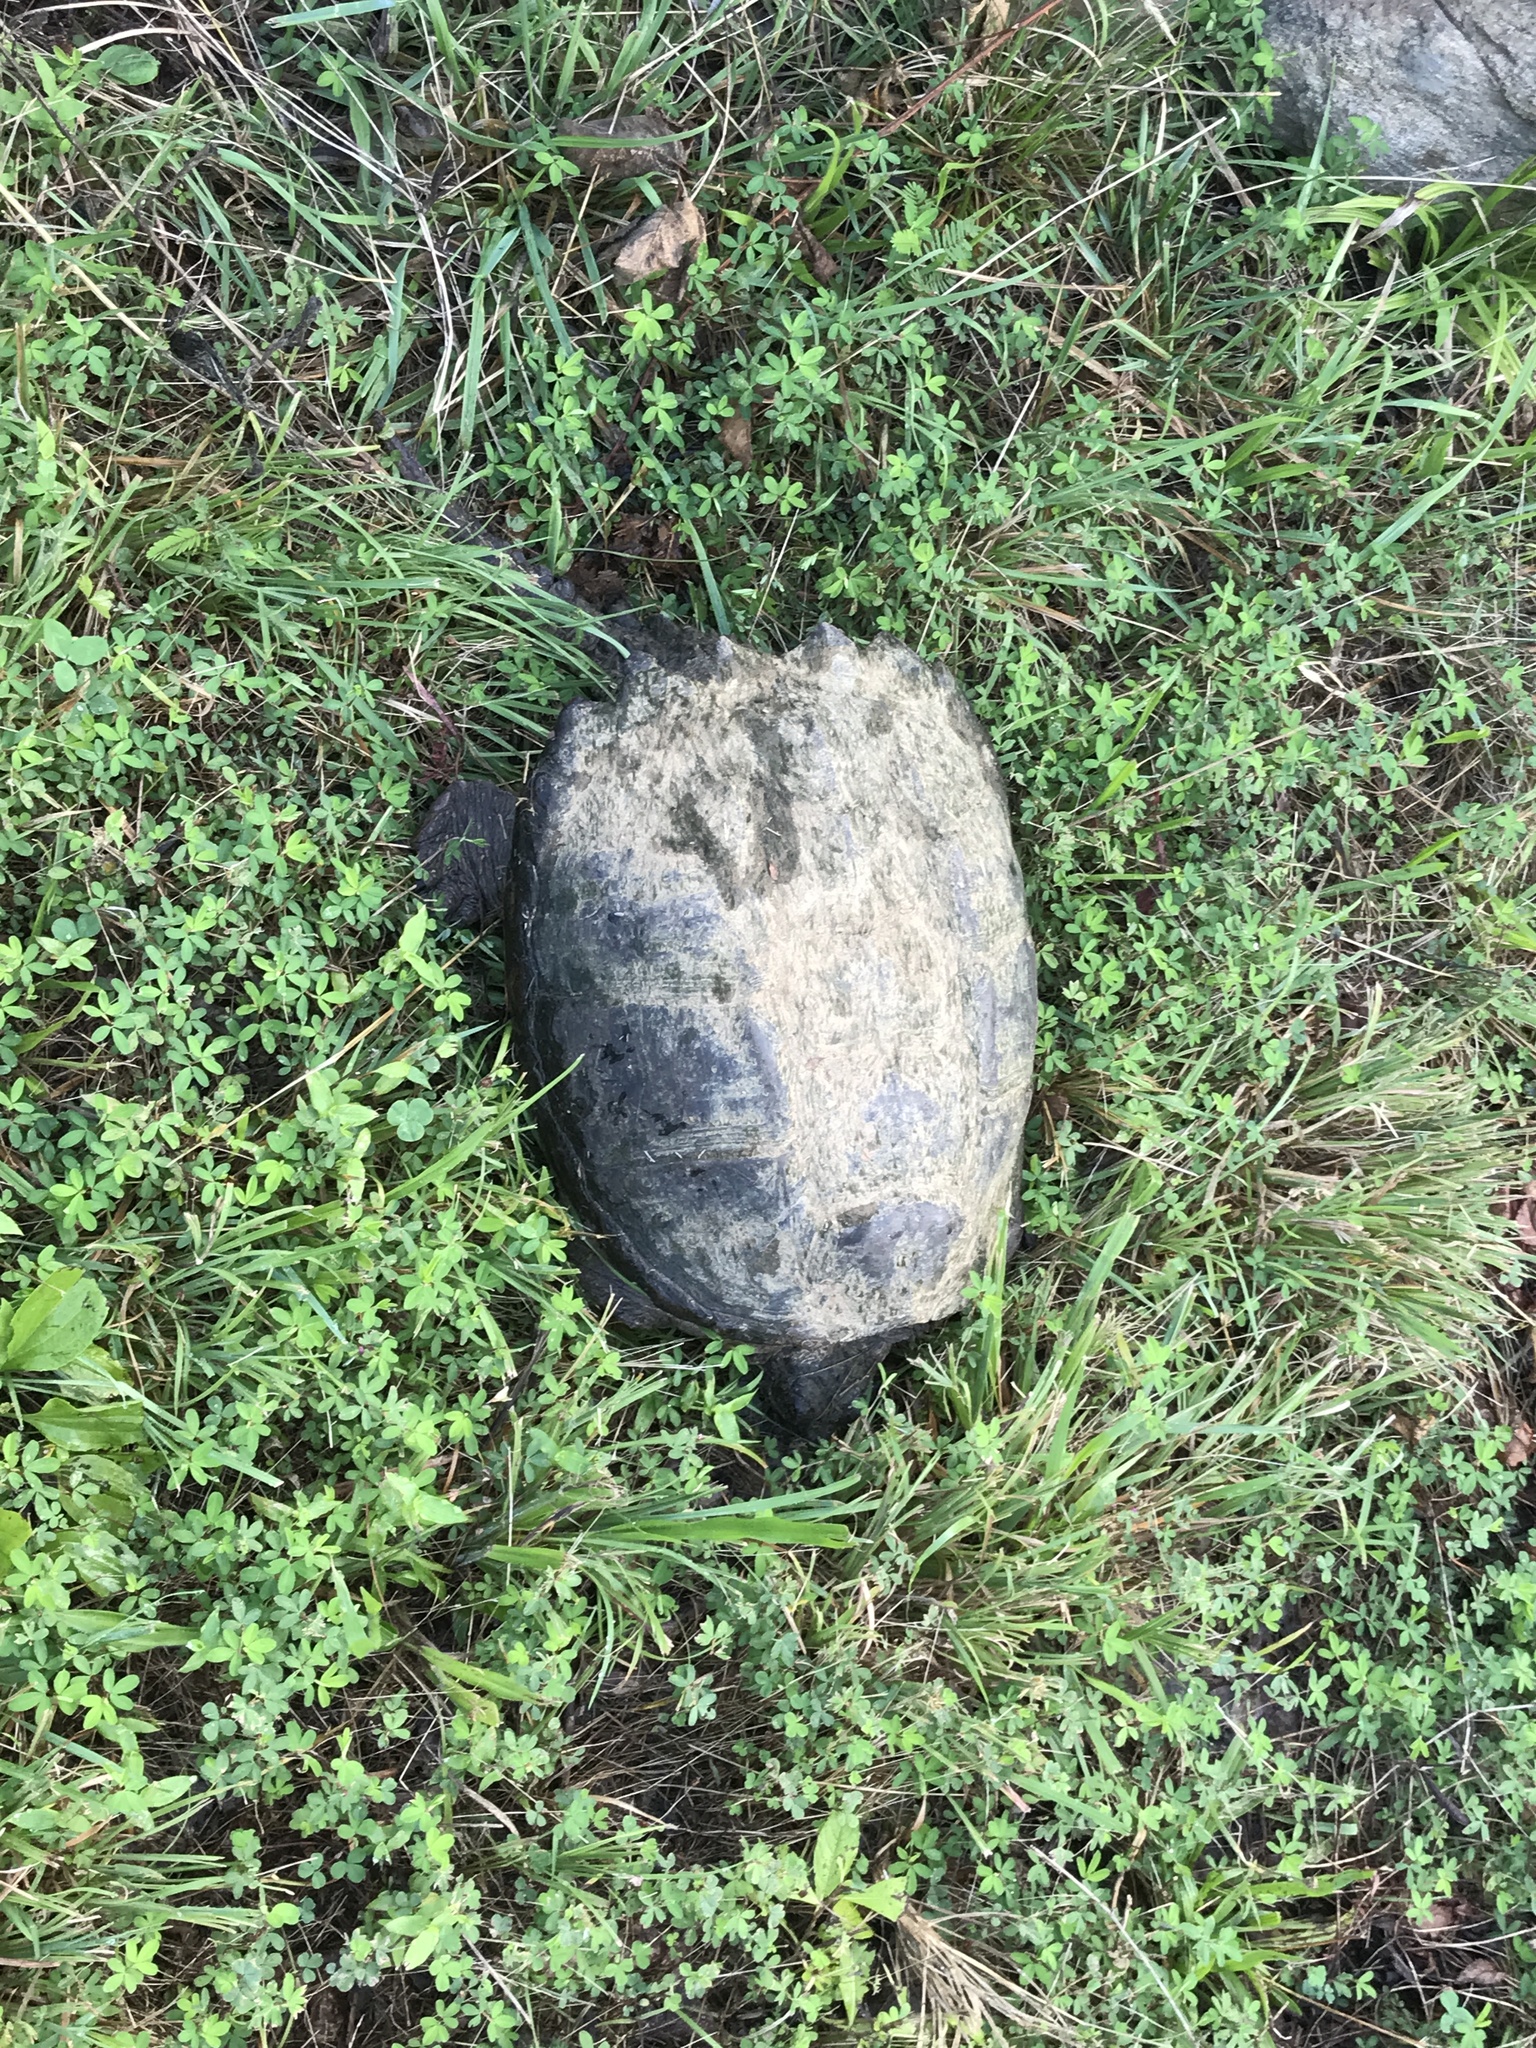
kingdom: Animalia
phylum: Chordata
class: Testudines
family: Chelydridae
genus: Chelydra
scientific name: Chelydra serpentina
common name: Common snapping turtle
